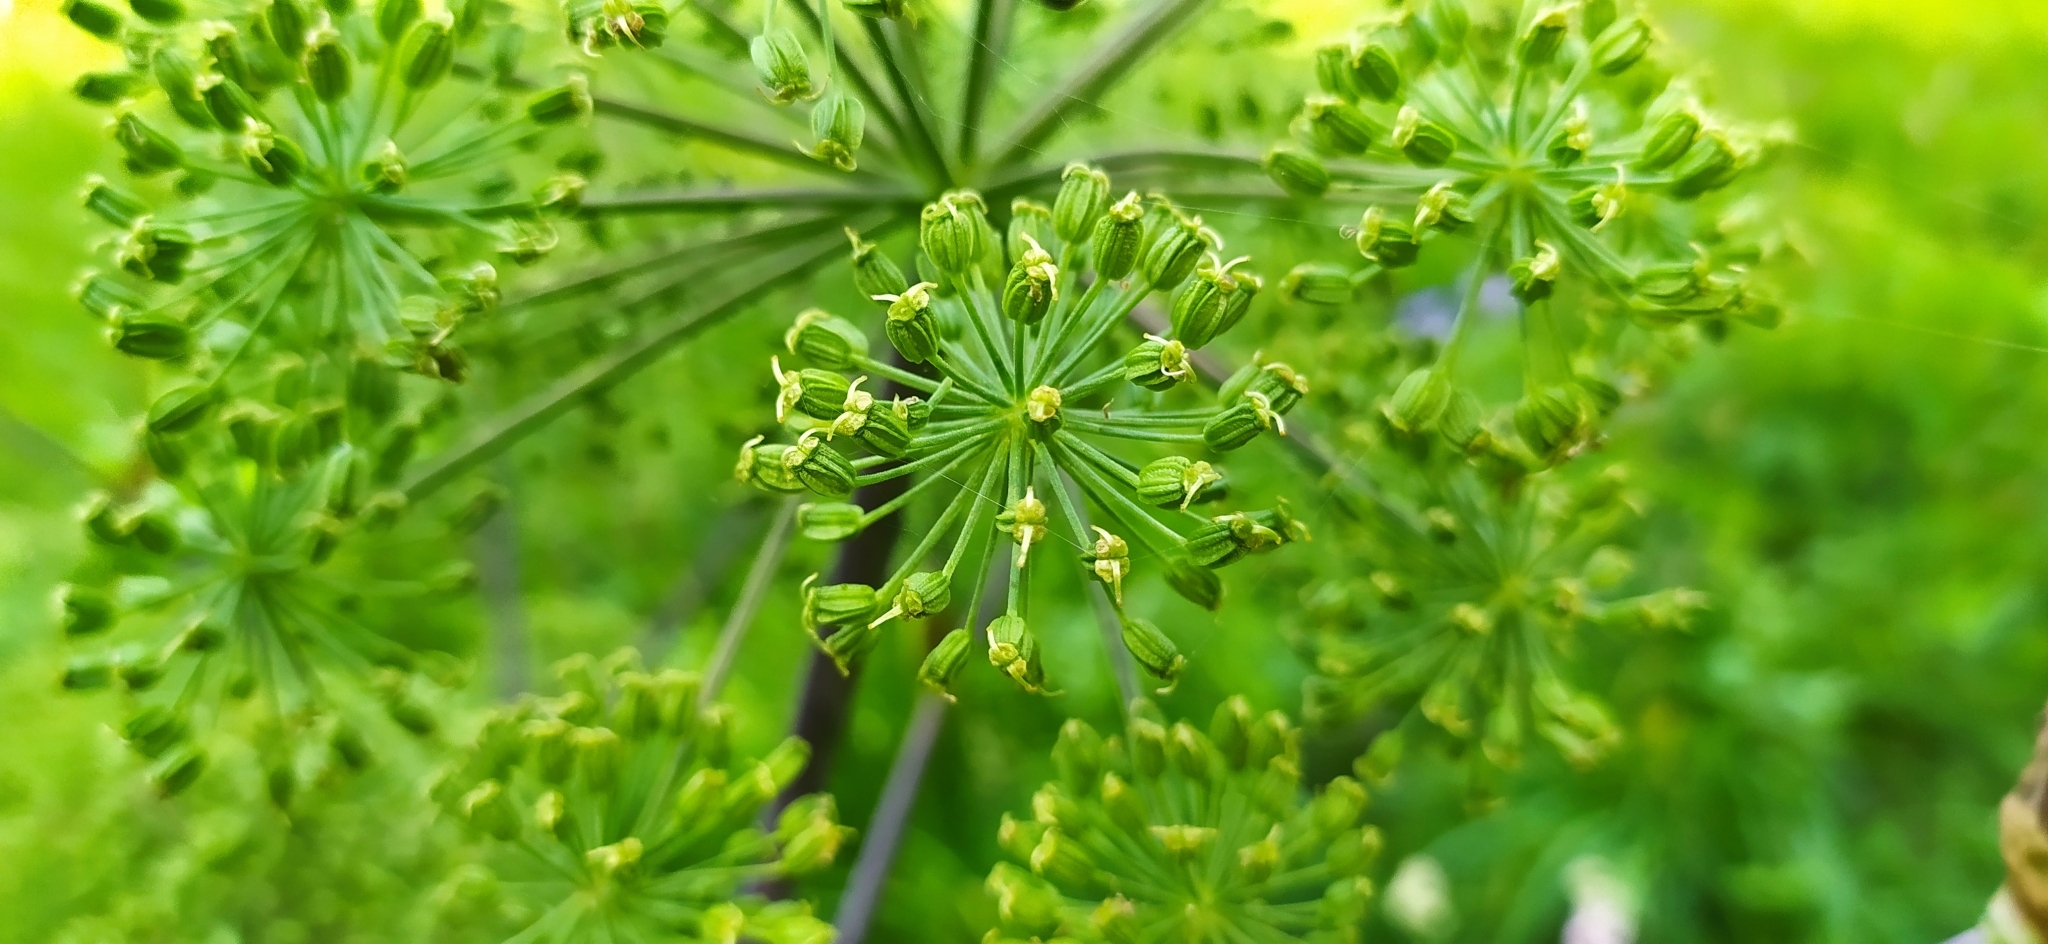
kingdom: Plantae
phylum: Tracheophyta
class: Magnoliopsida
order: Apiales
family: Apiaceae
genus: Angelica
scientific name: Angelica archangelica
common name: Garden angelica
